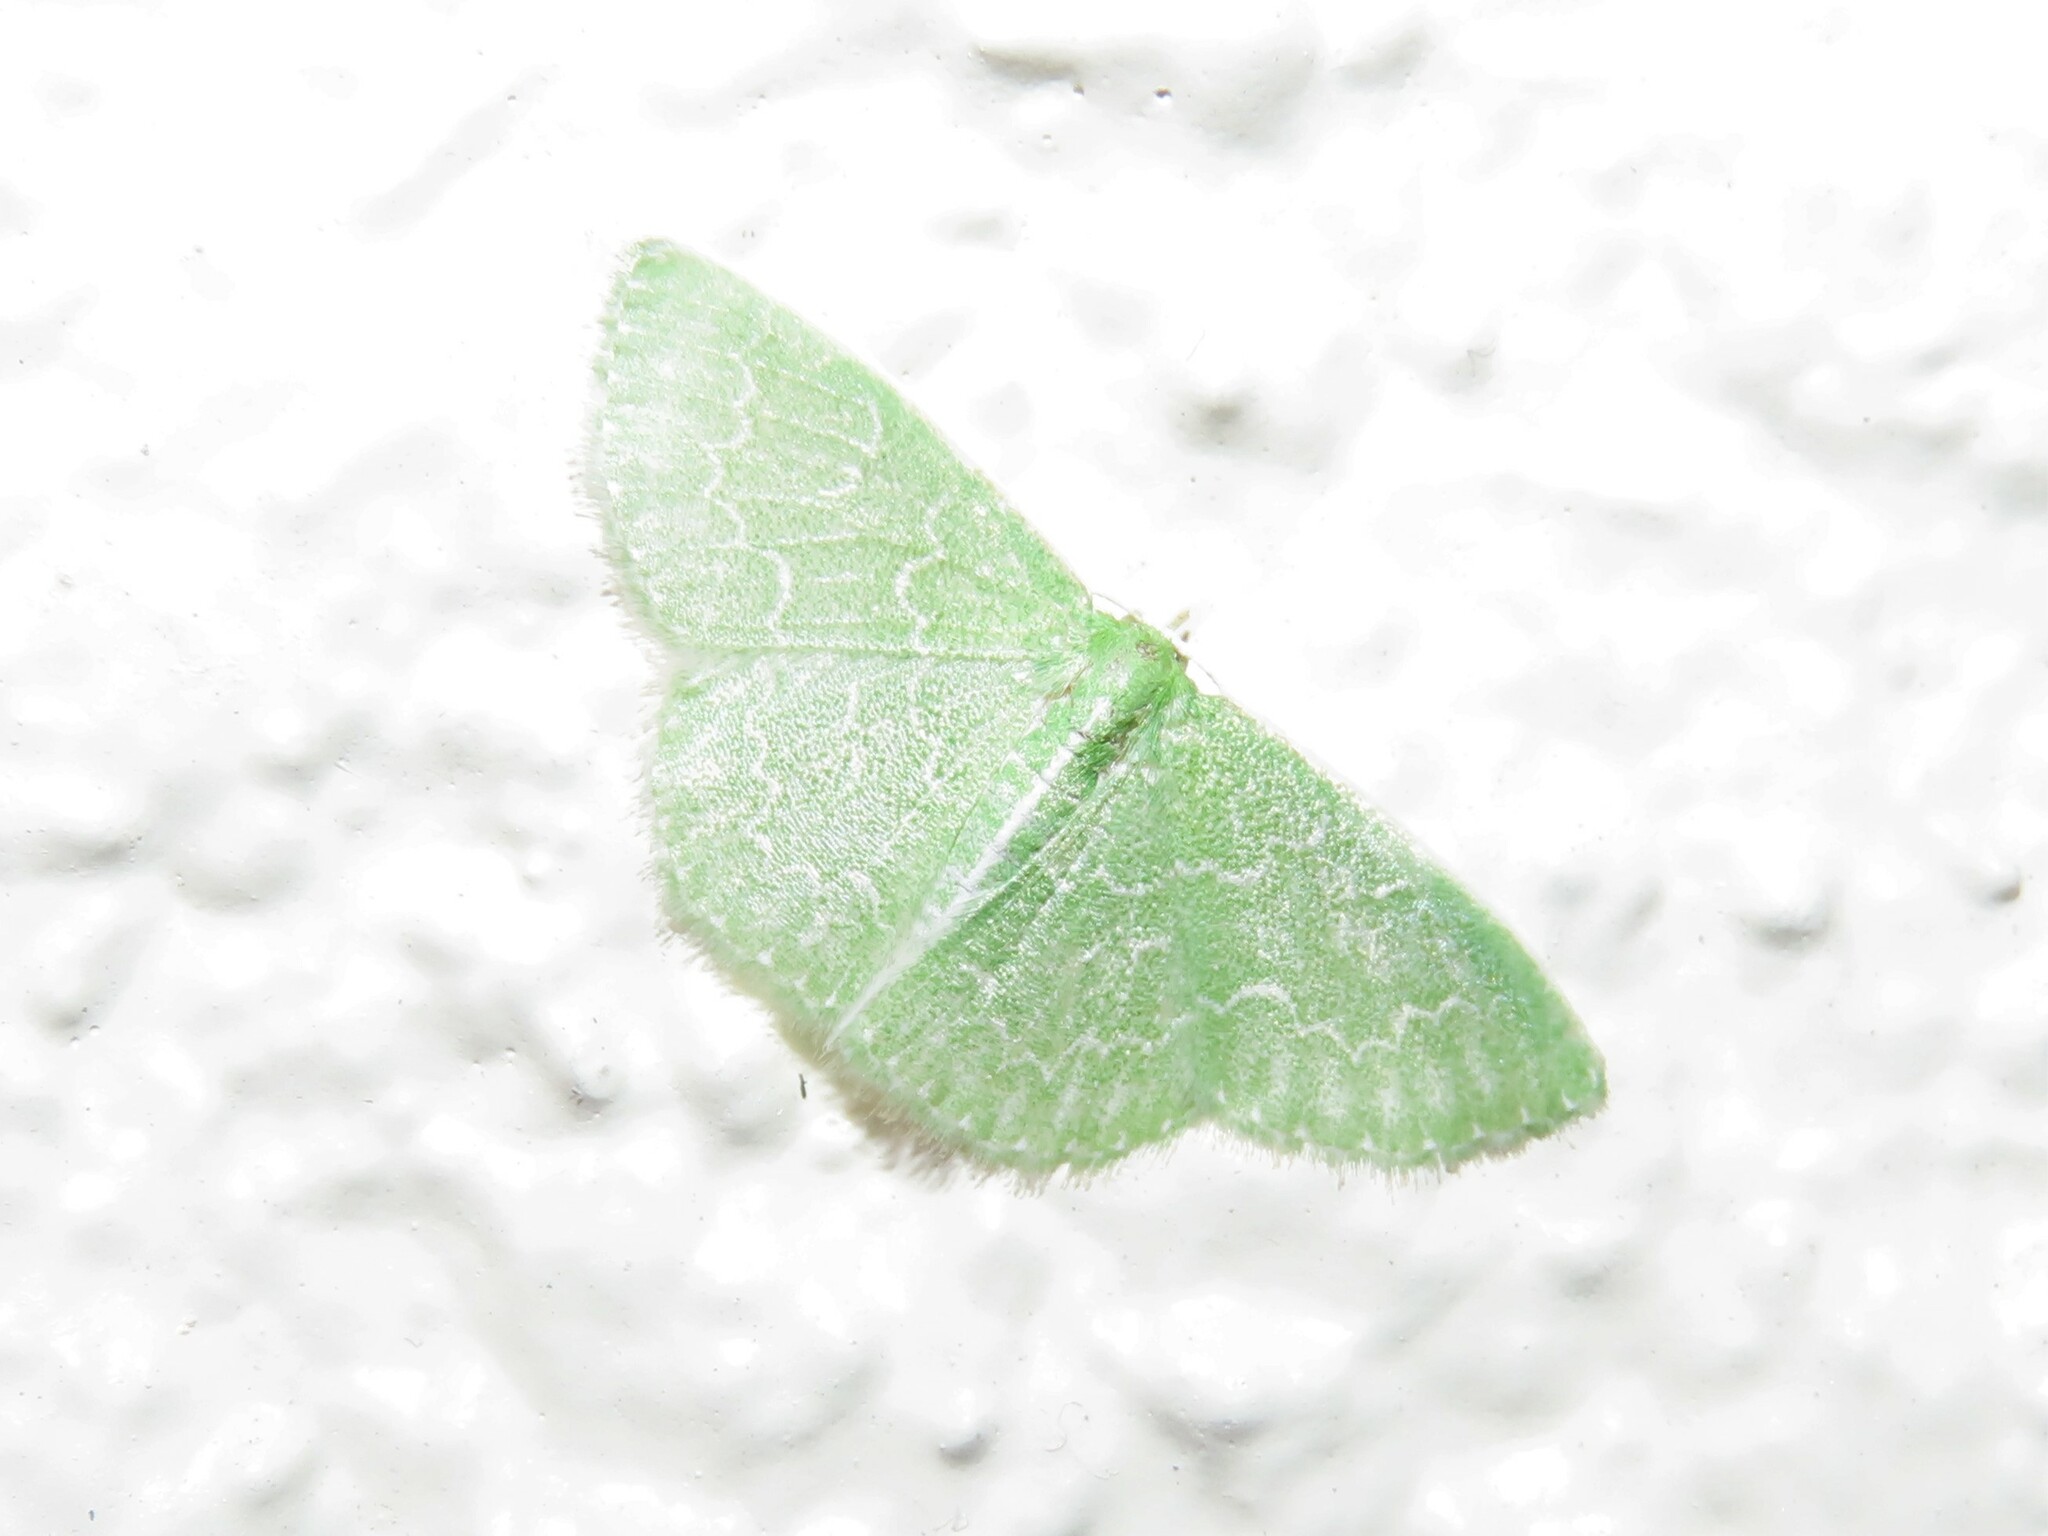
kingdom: Animalia
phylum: Arthropoda
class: Insecta
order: Lepidoptera
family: Geometridae
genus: Synchlora
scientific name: Synchlora frondaria
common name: Southern emerald
